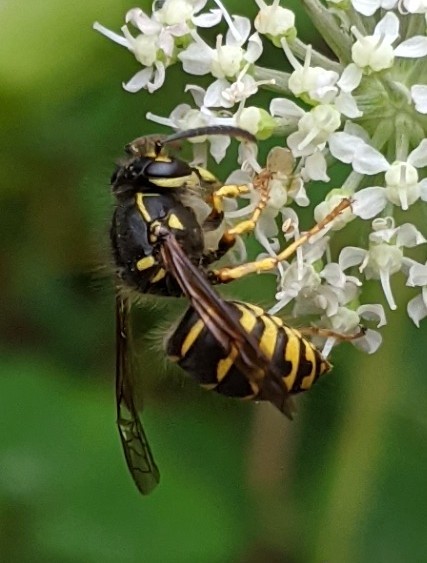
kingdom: Animalia
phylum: Arthropoda
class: Insecta
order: Hymenoptera
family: Vespidae
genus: Dolichovespula
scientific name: Dolichovespula arenaria
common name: Aerial yellowjacket
